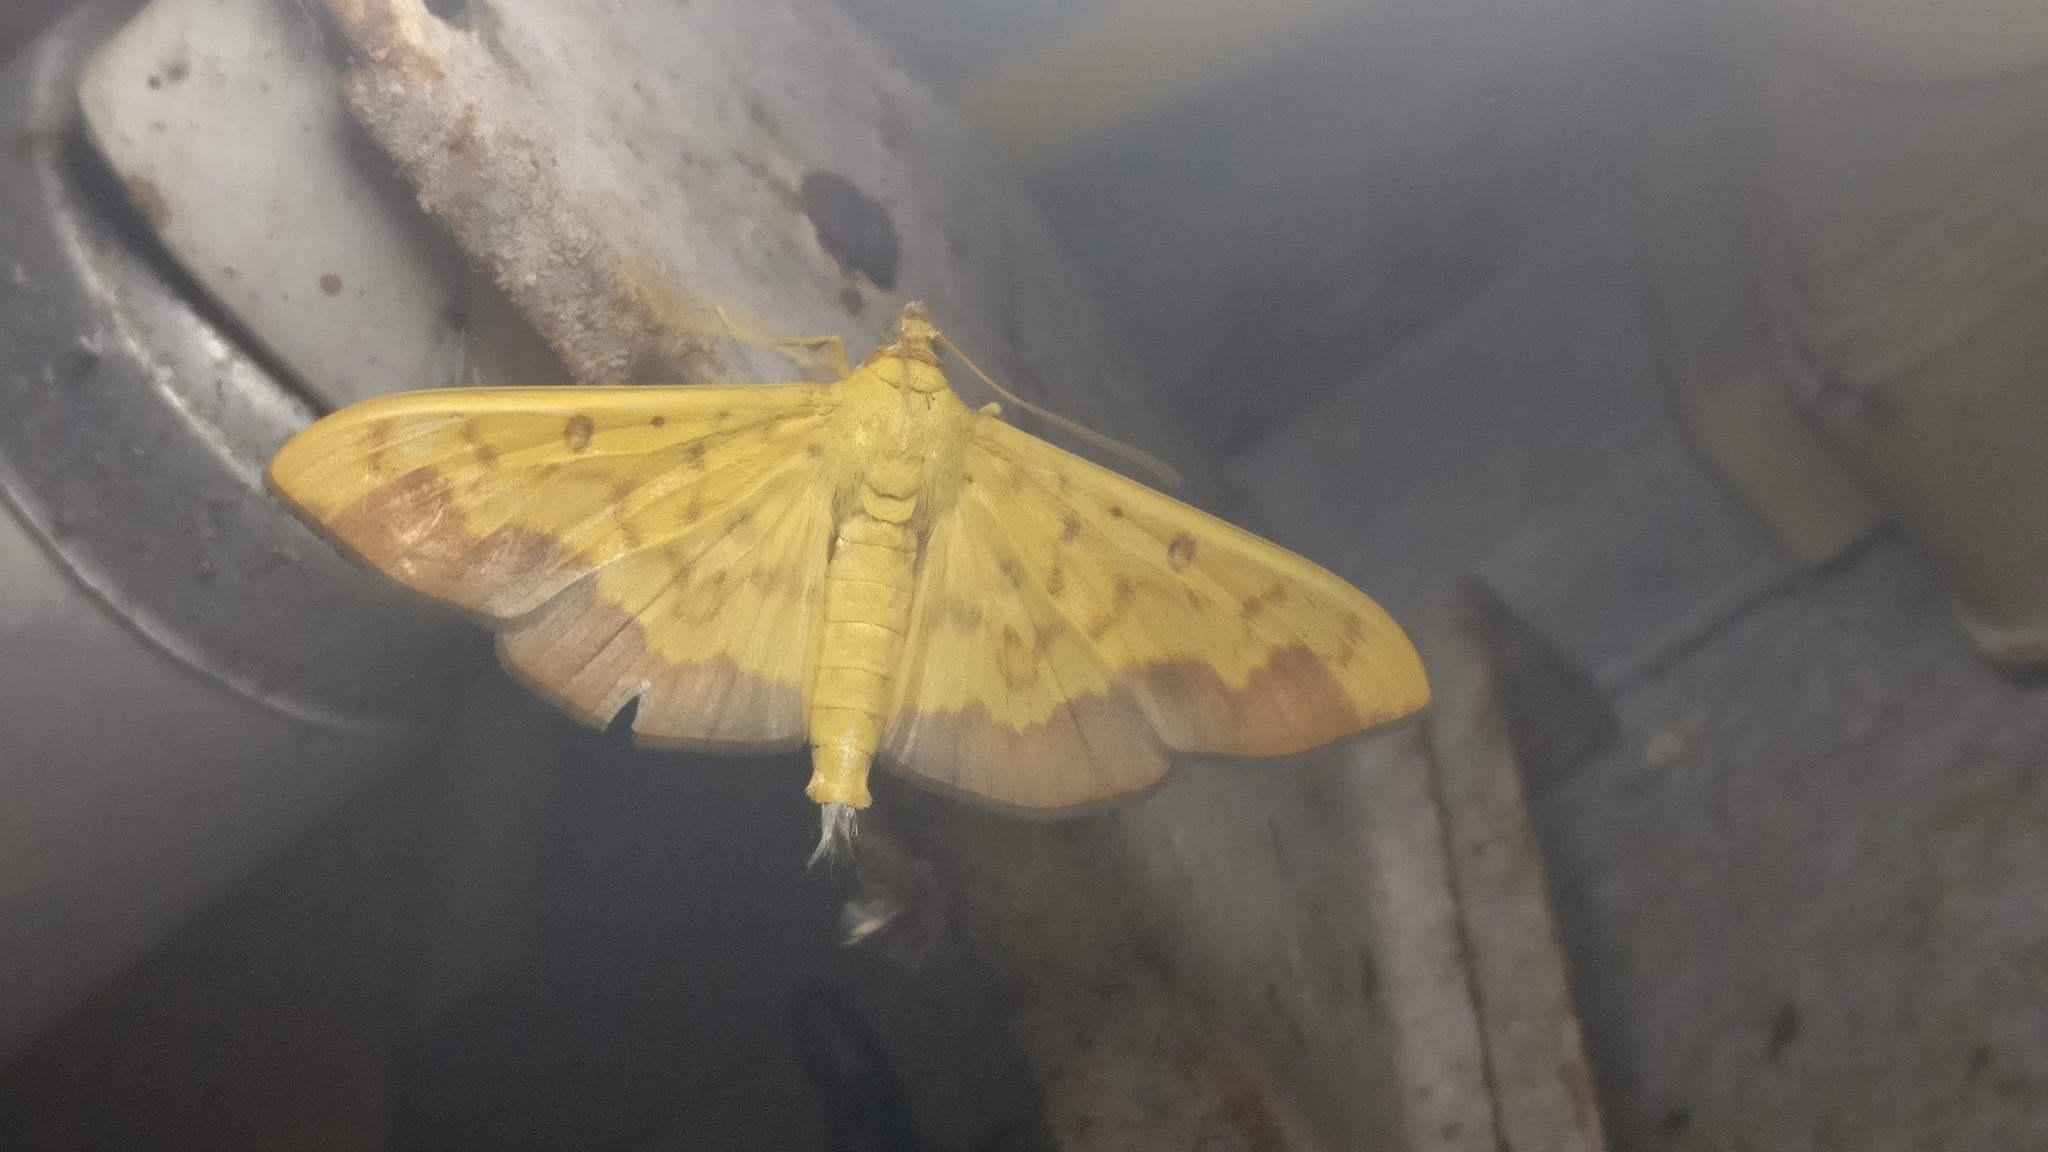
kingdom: Animalia
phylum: Arthropoda
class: Insecta
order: Lepidoptera
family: Crambidae
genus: Botyodes
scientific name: Botyodes asialis
